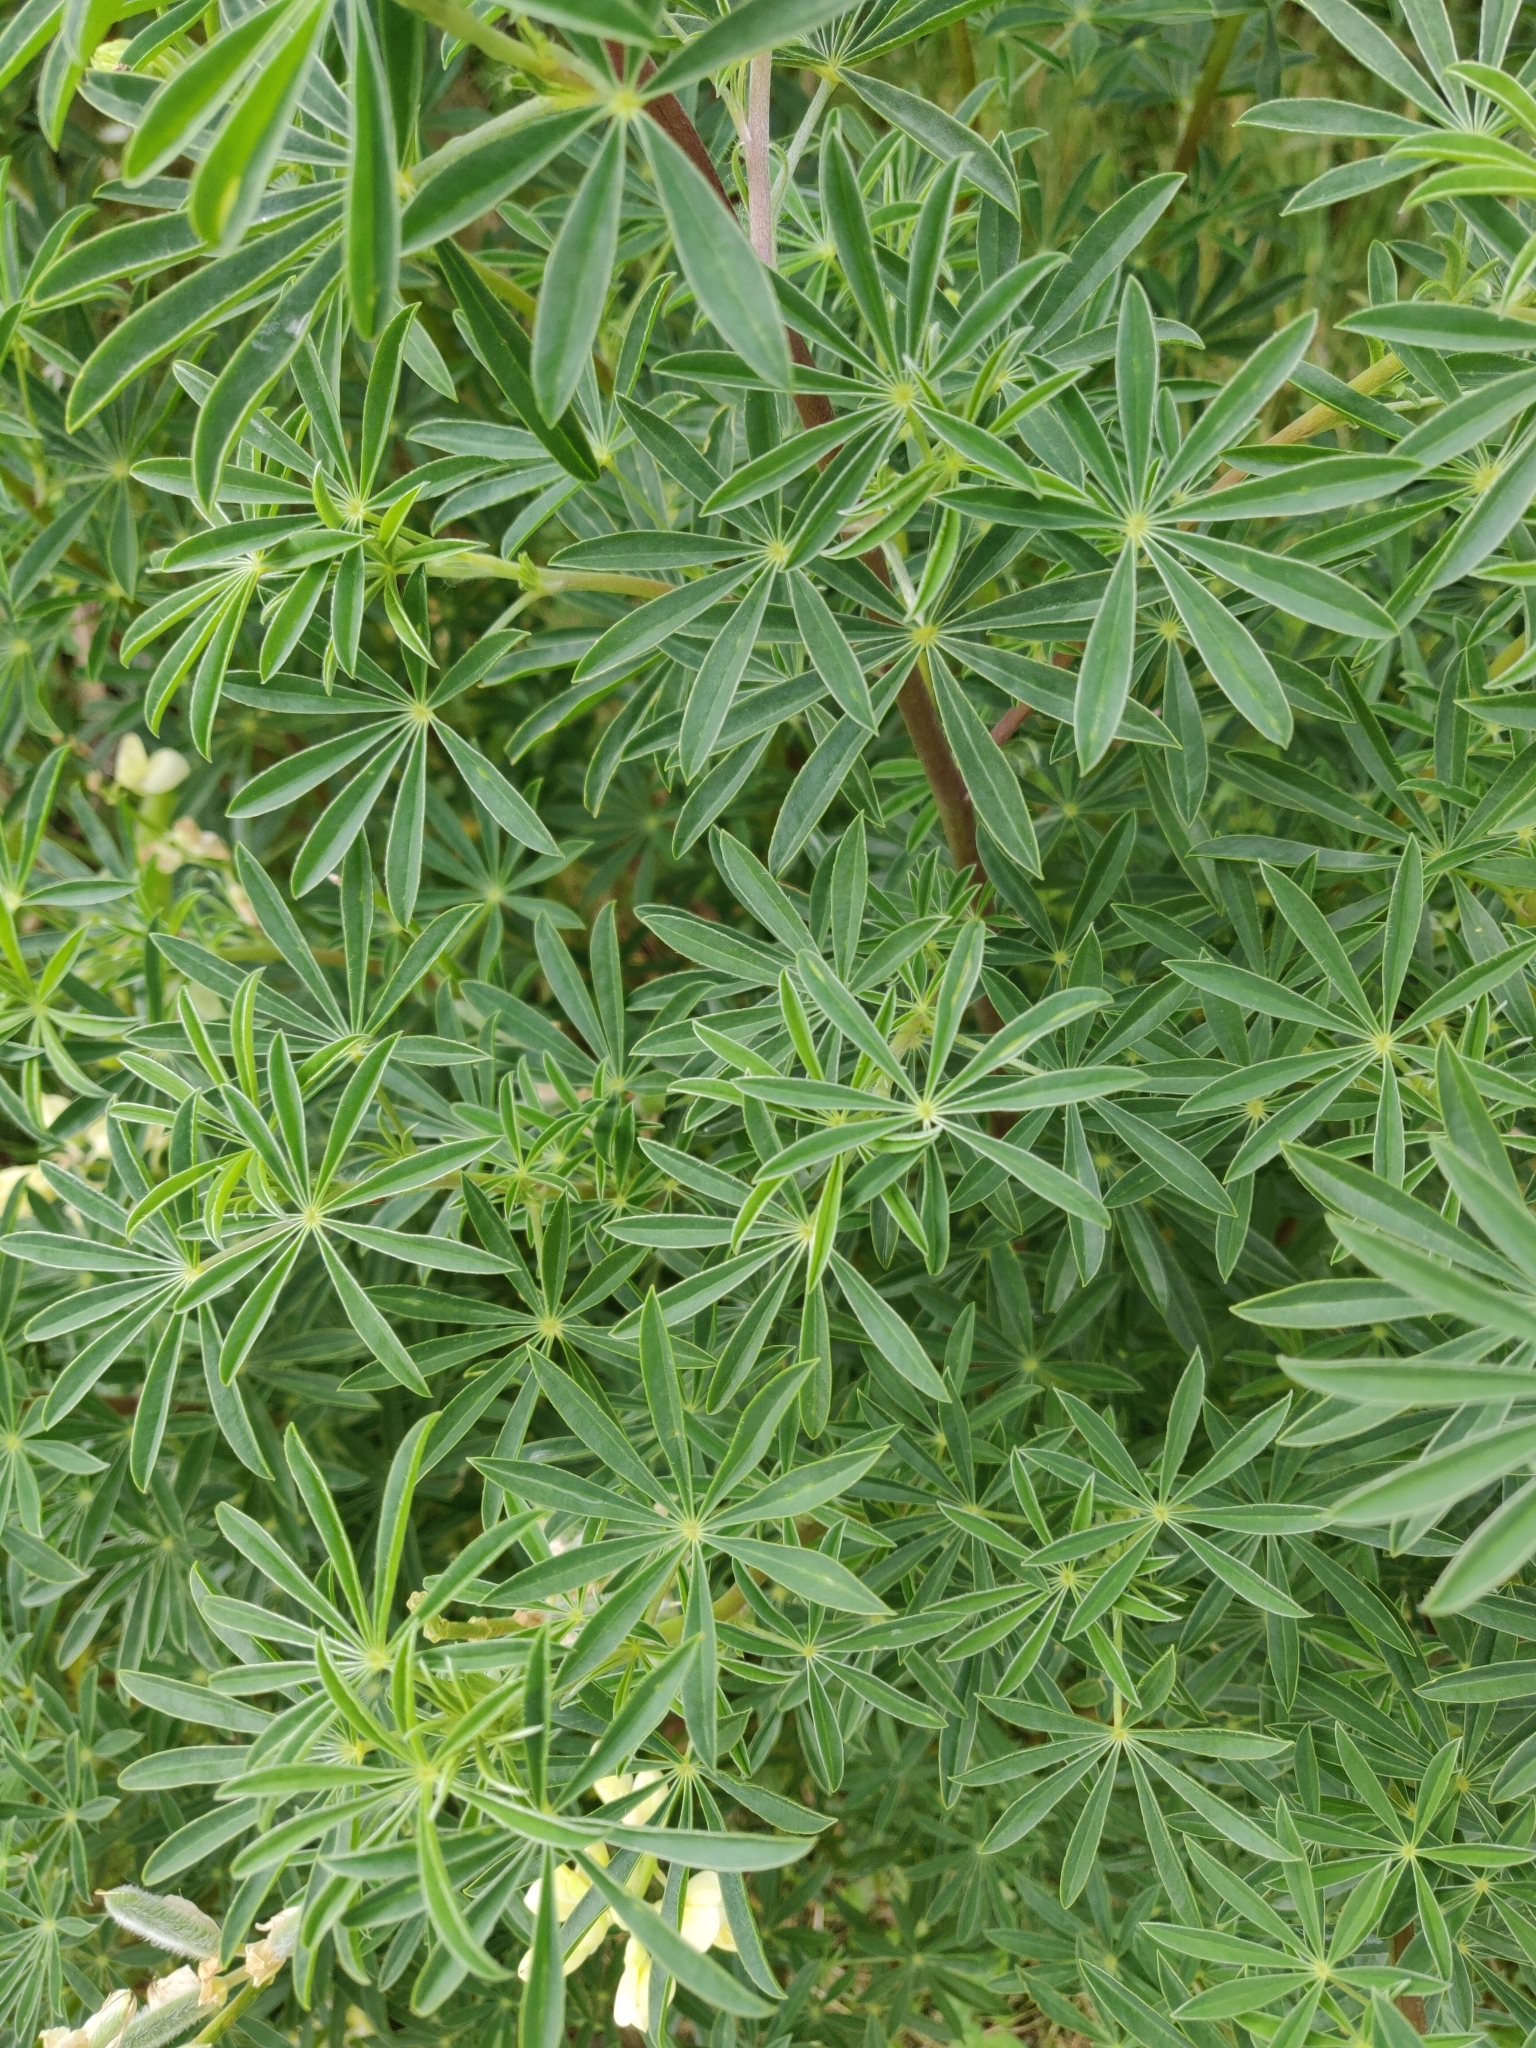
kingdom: Plantae
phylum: Tracheophyta
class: Magnoliopsida
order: Fabales
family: Fabaceae
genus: Lupinus
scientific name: Lupinus arboreus
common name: Yellow bush lupine
